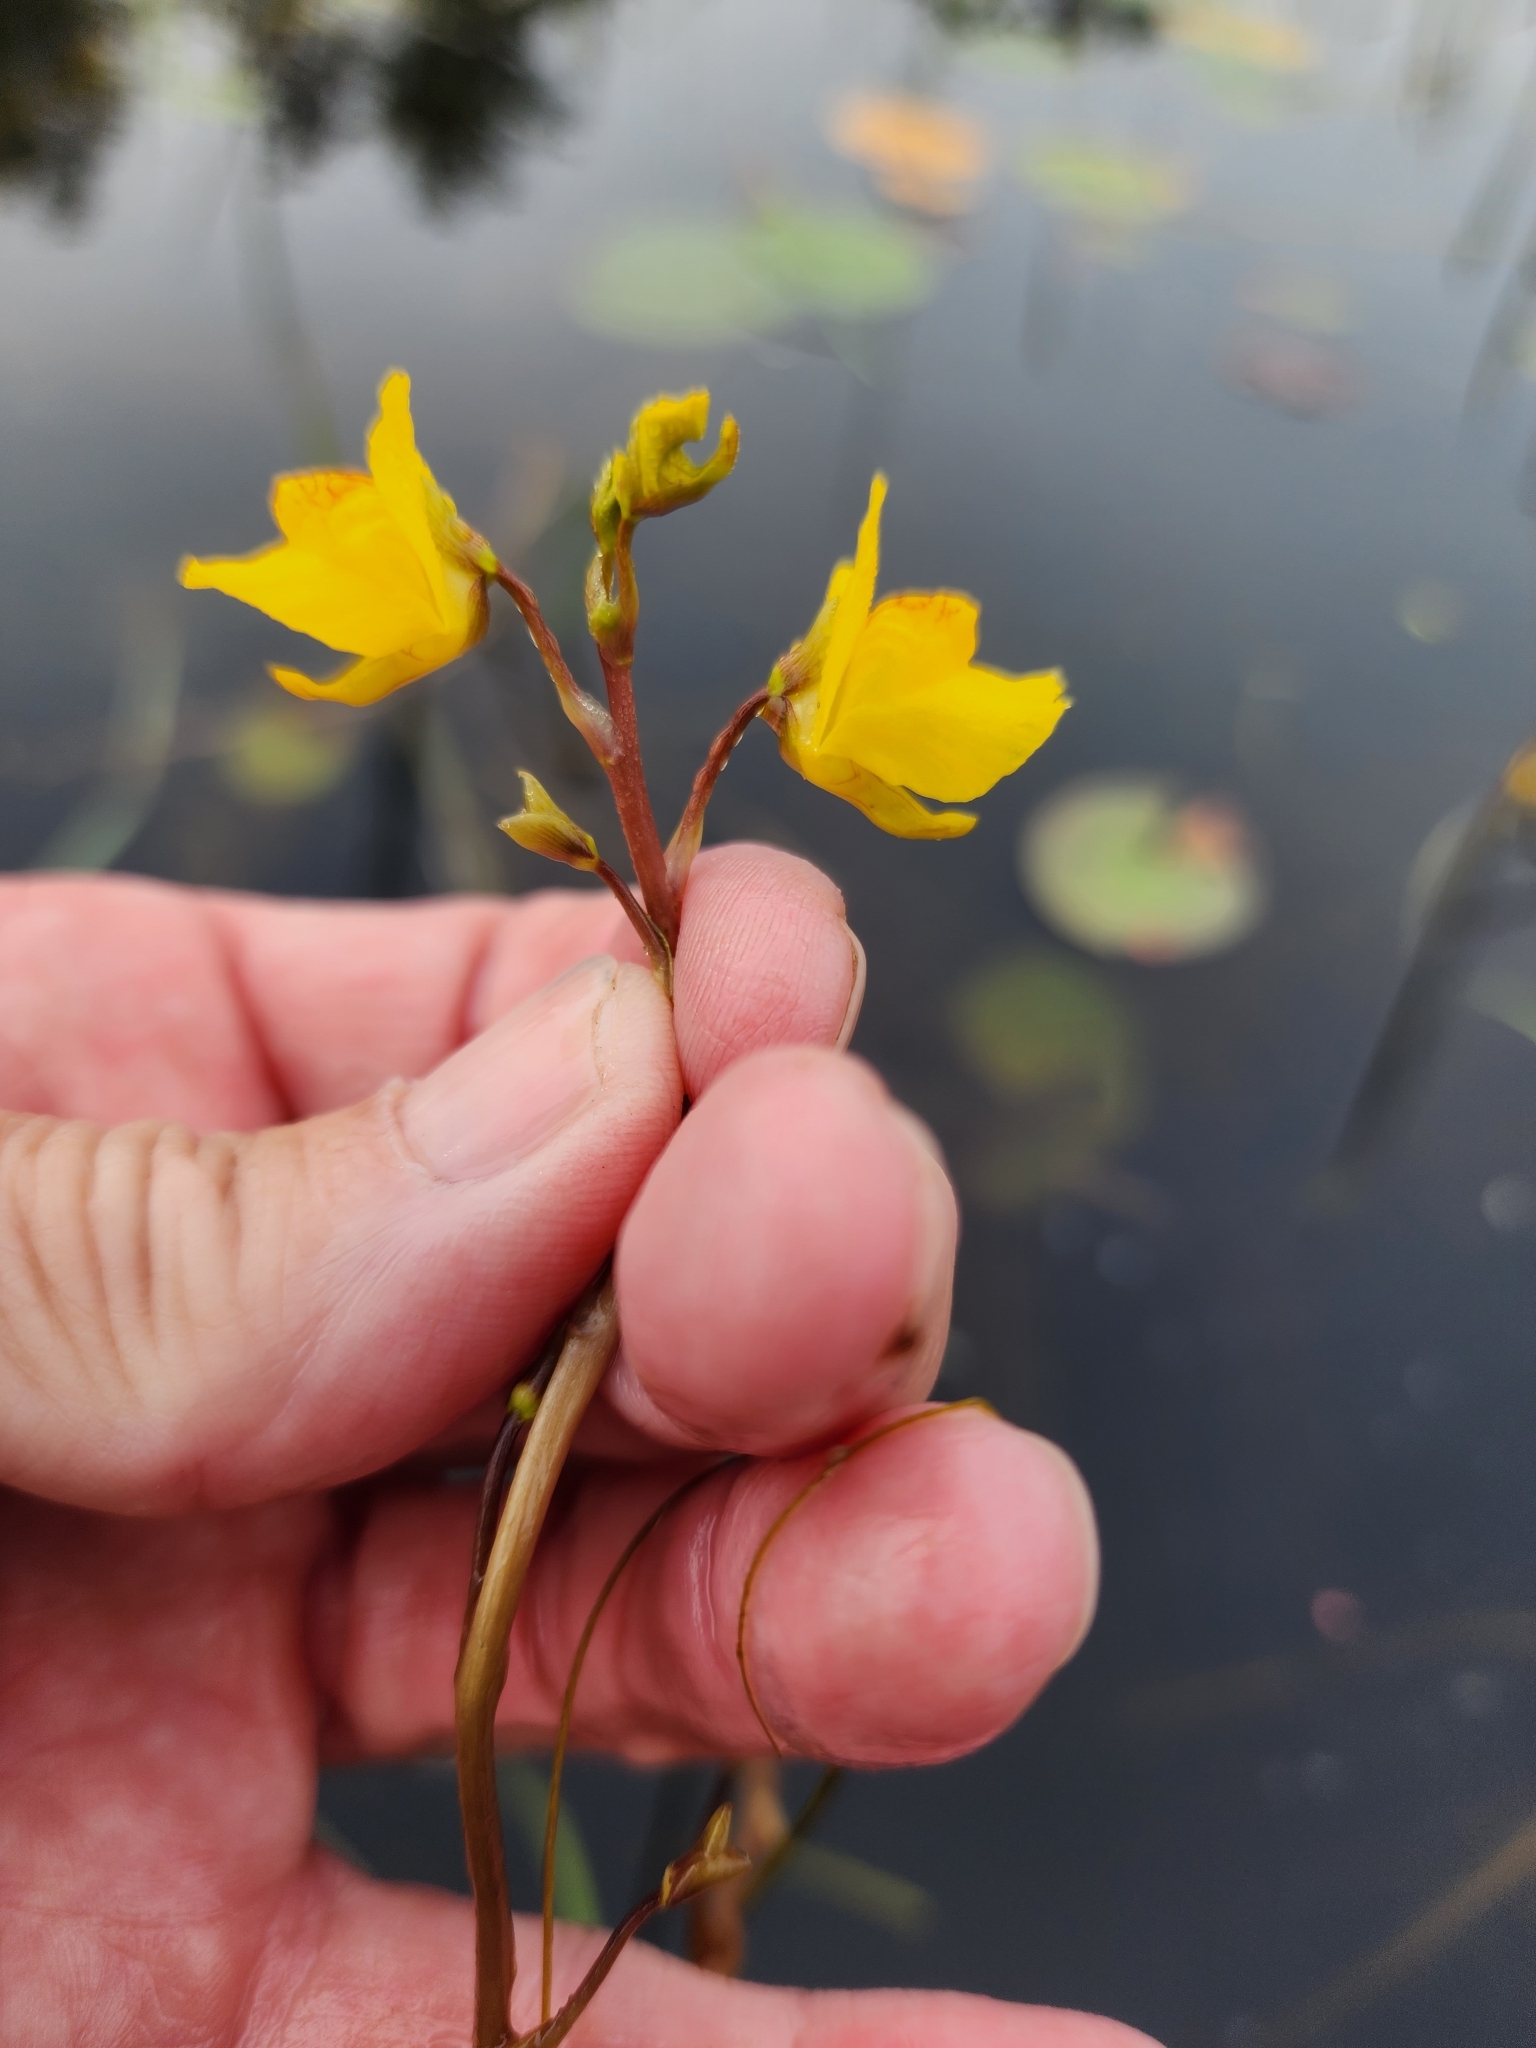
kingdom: Plantae
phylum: Tracheophyta
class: Magnoliopsida
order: Lamiales
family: Lentibulariaceae
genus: Utricularia
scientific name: Utricularia macrorhiza
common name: Common bladderwort
